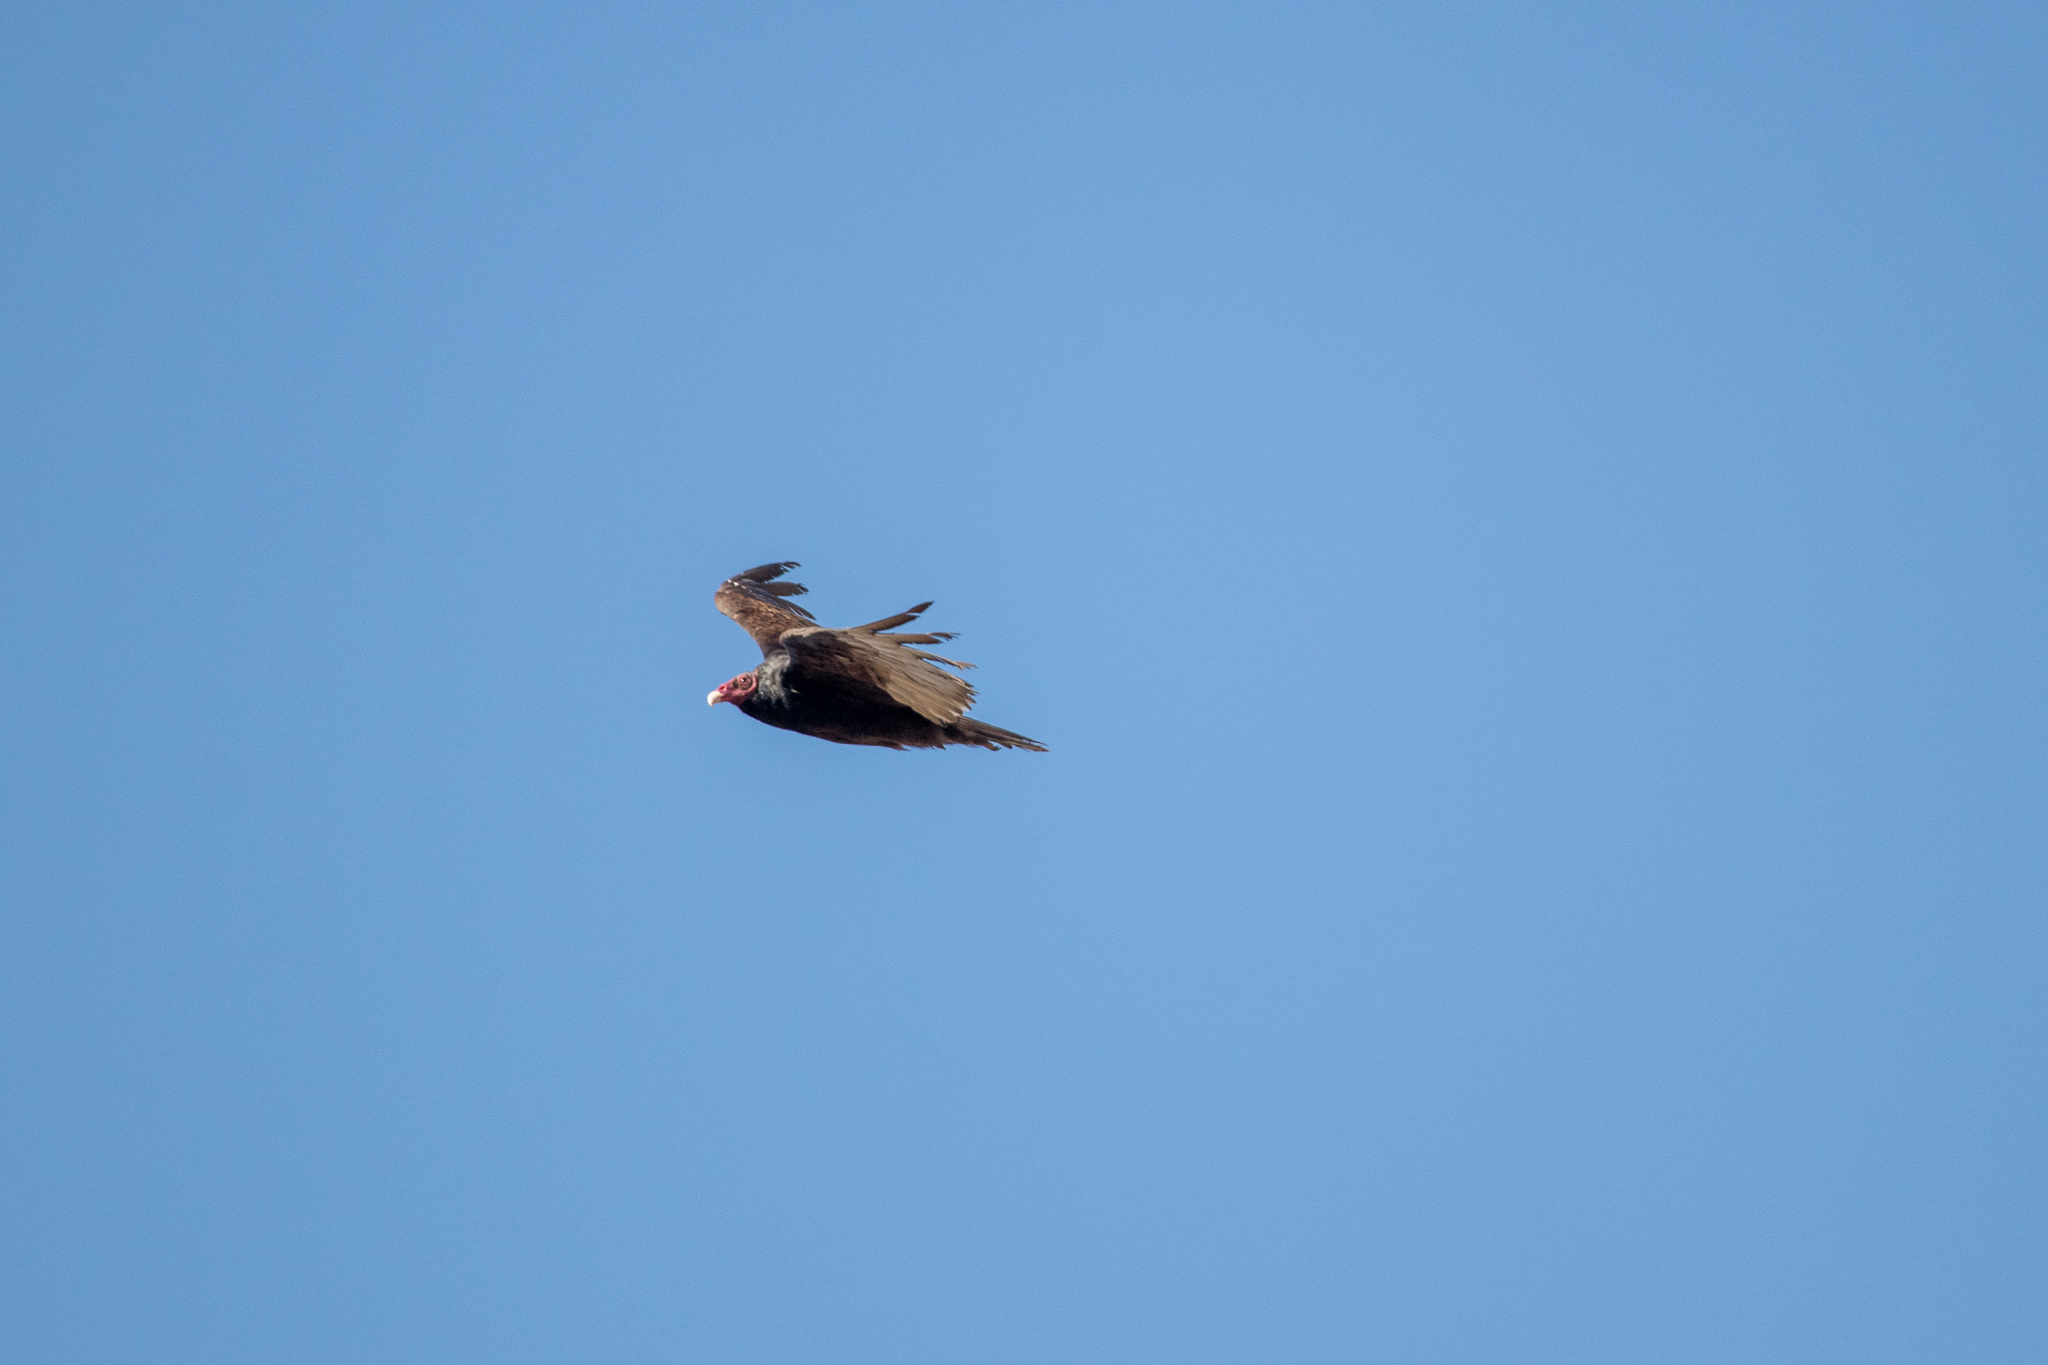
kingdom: Animalia
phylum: Chordata
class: Aves
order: Accipitriformes
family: Cathartidae
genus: Cathartes
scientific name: Cathartes aura
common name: Turkey vulture
